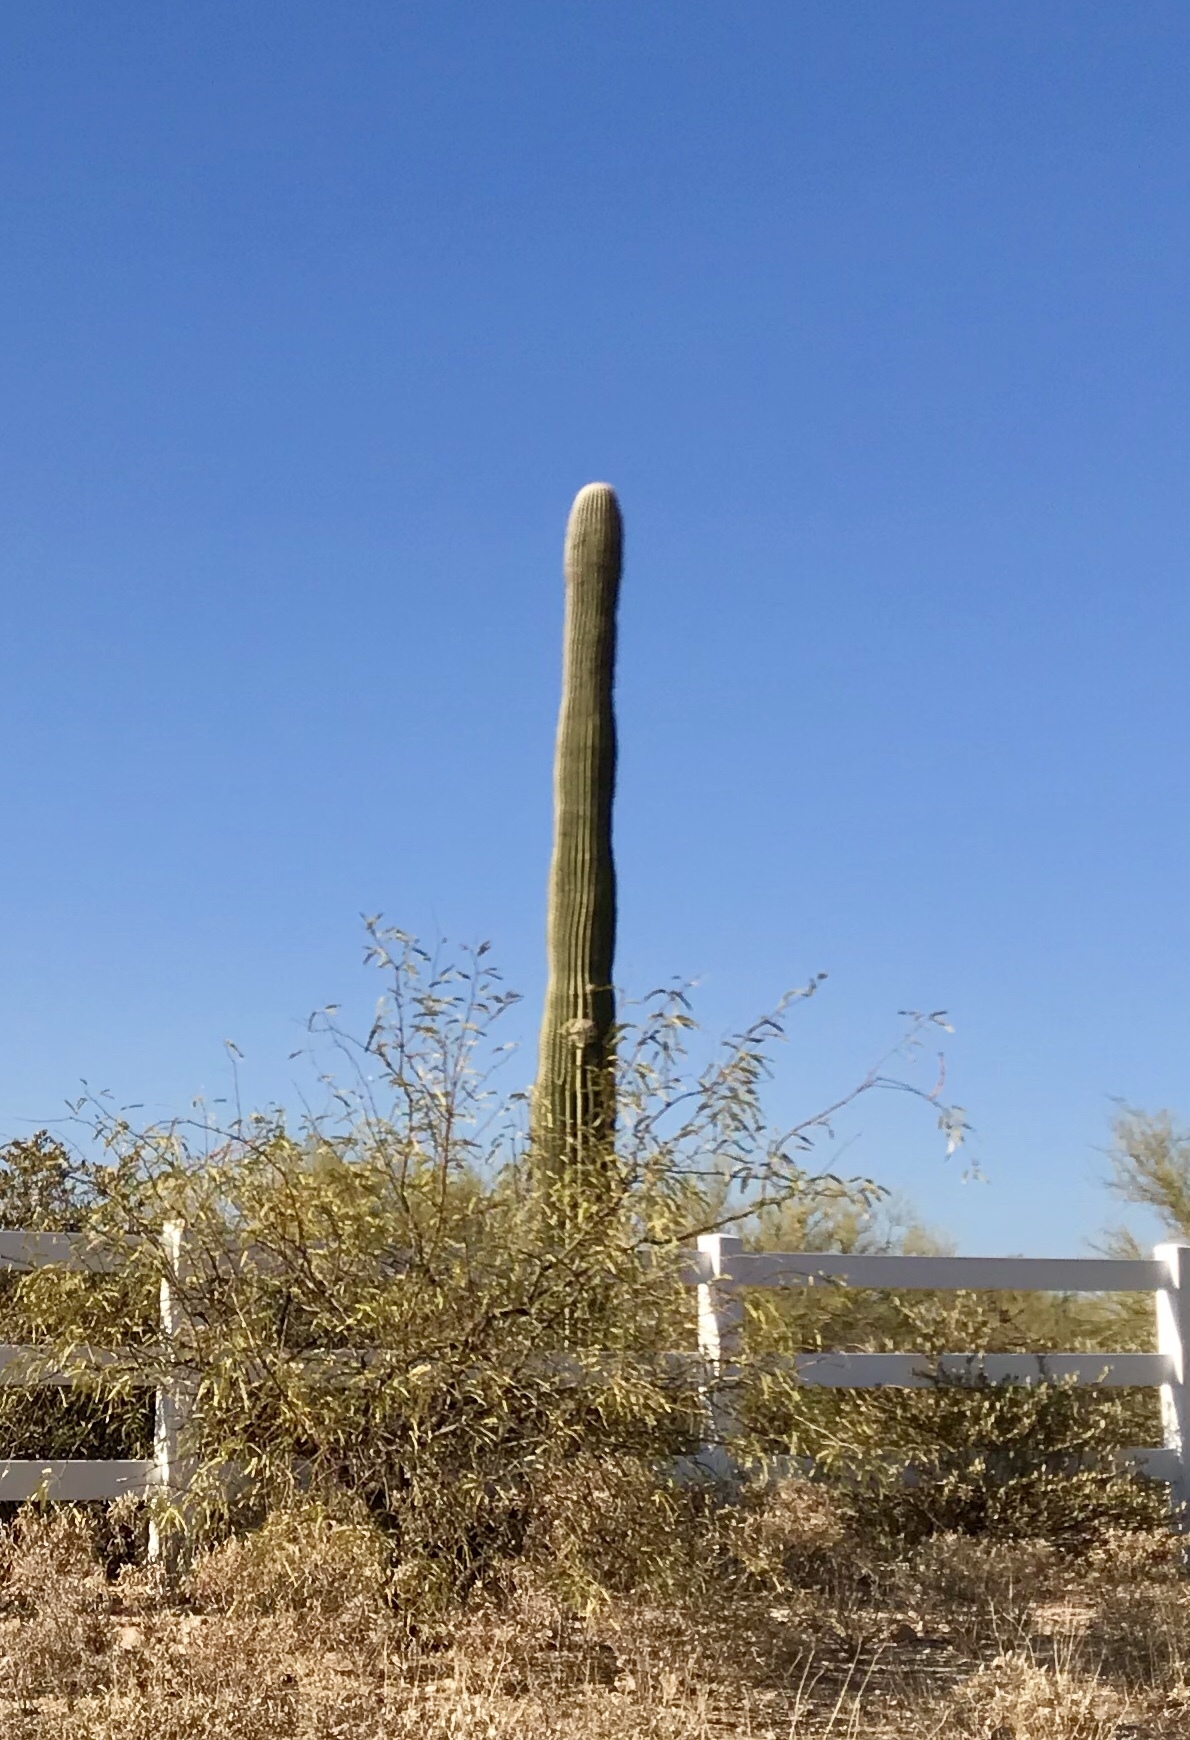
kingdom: Plantae
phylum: Tracheophyta
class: Magnoliopsida
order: Caryophyllales
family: Cactaceae
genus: Carnegiea
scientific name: Carnegiea gigantea
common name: Saguaro
